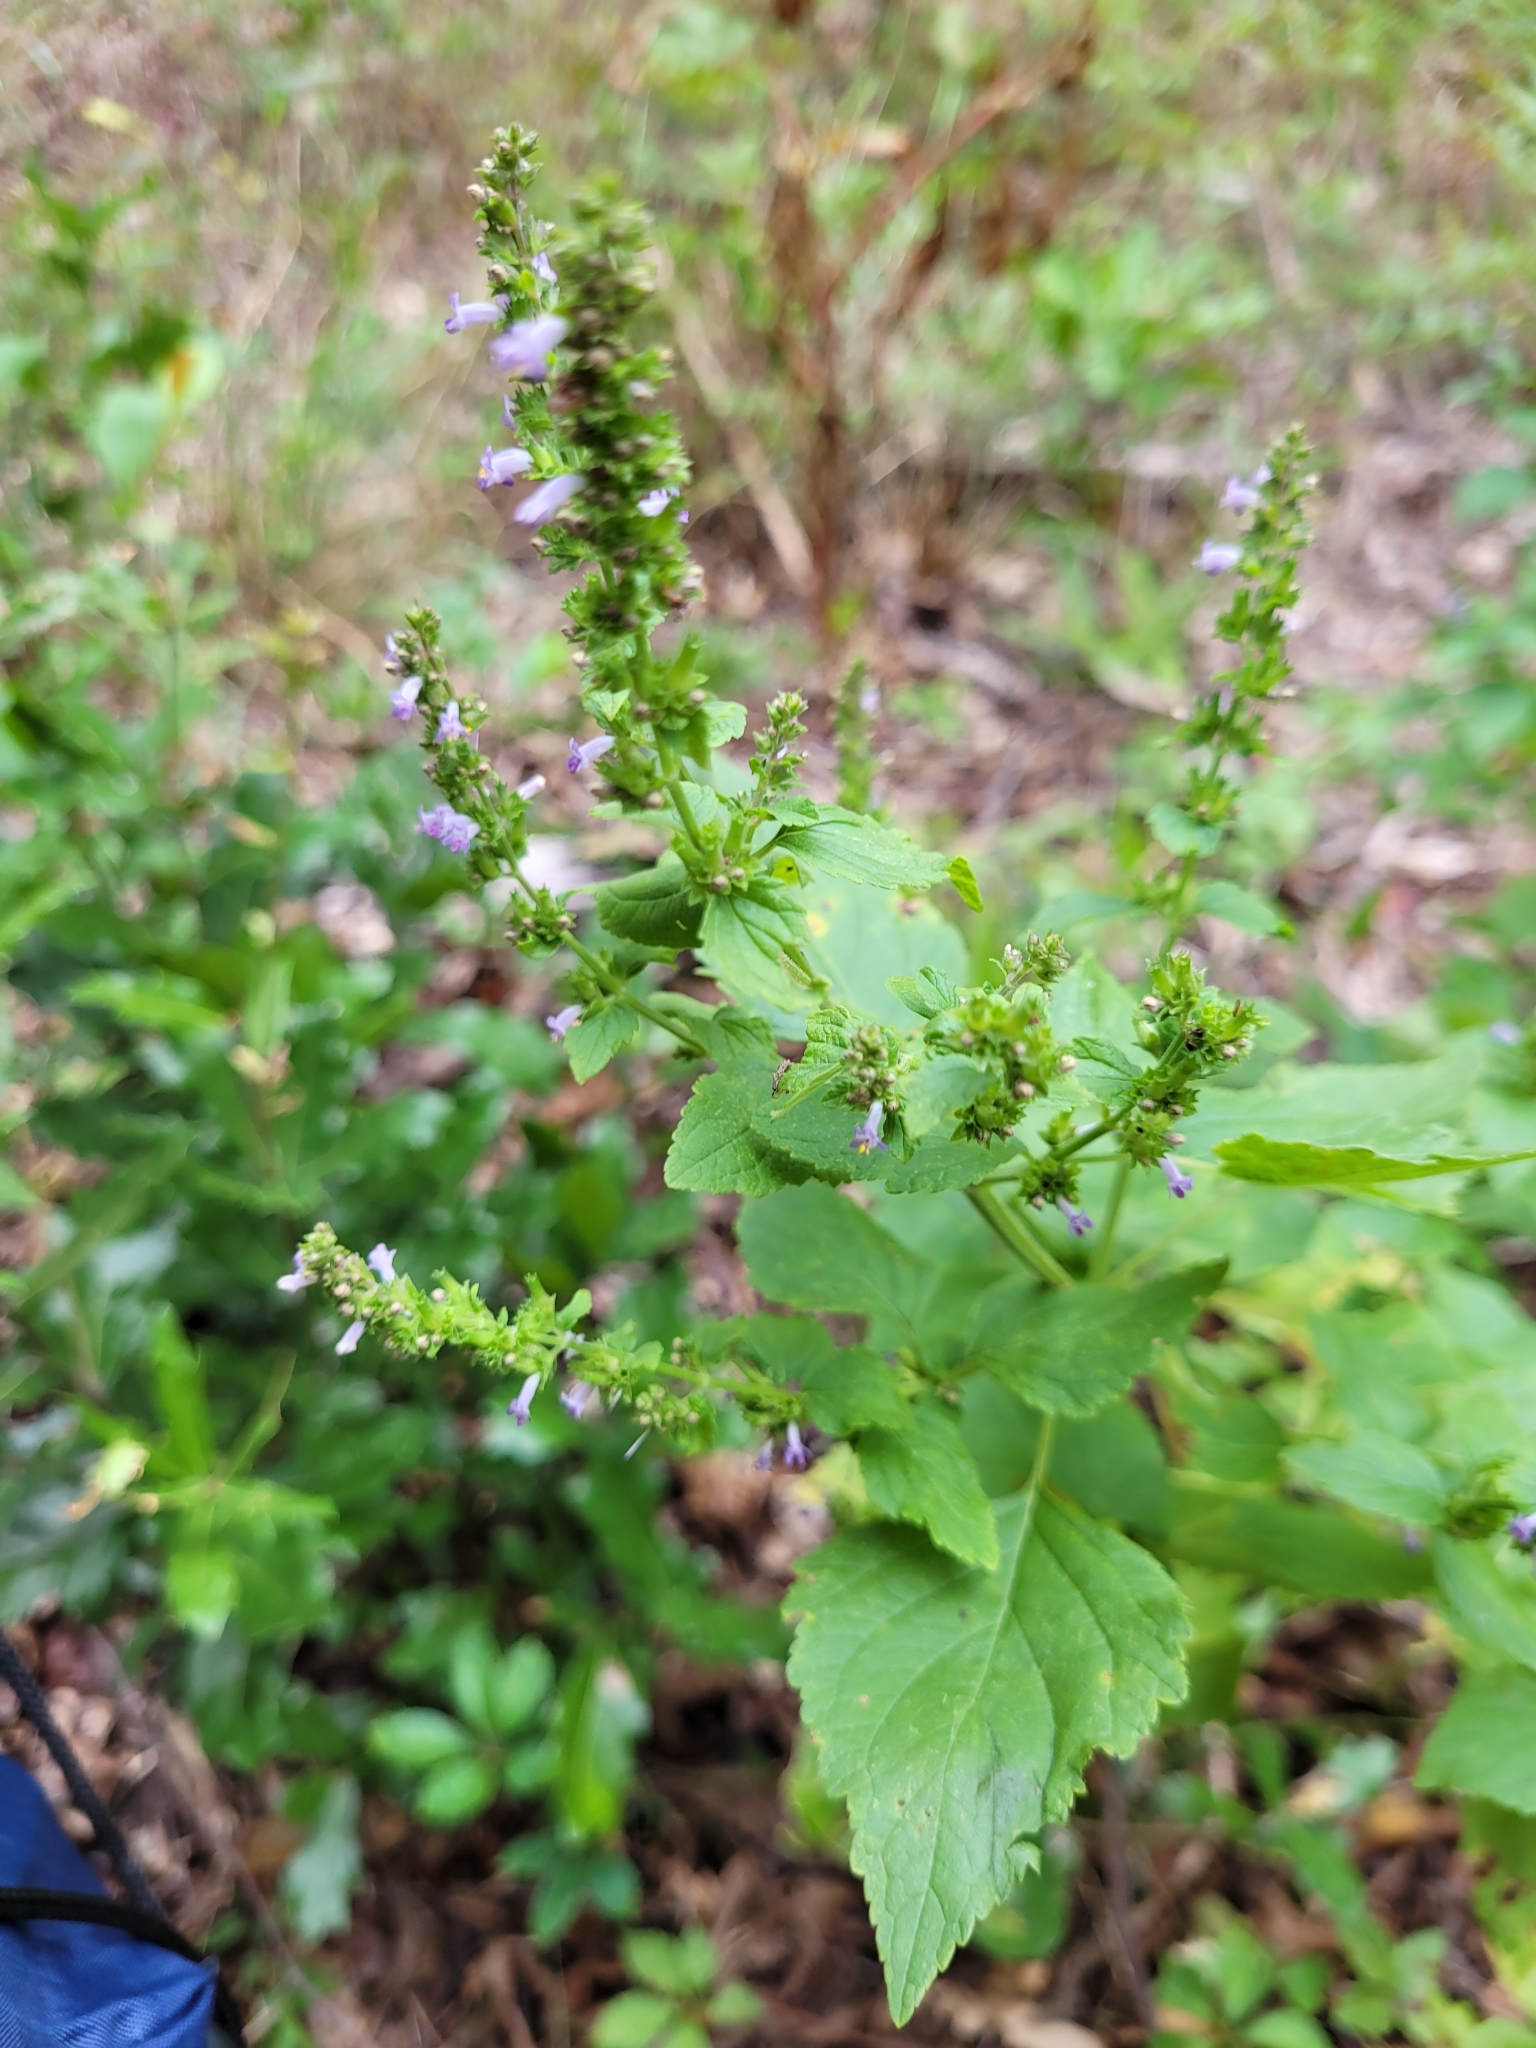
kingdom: Plantae
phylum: Tracheophyta
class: Magnoliopsida
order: Lamiales
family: Lamiaceae
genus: Cantinoa
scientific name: Cantinoa mutabilis
